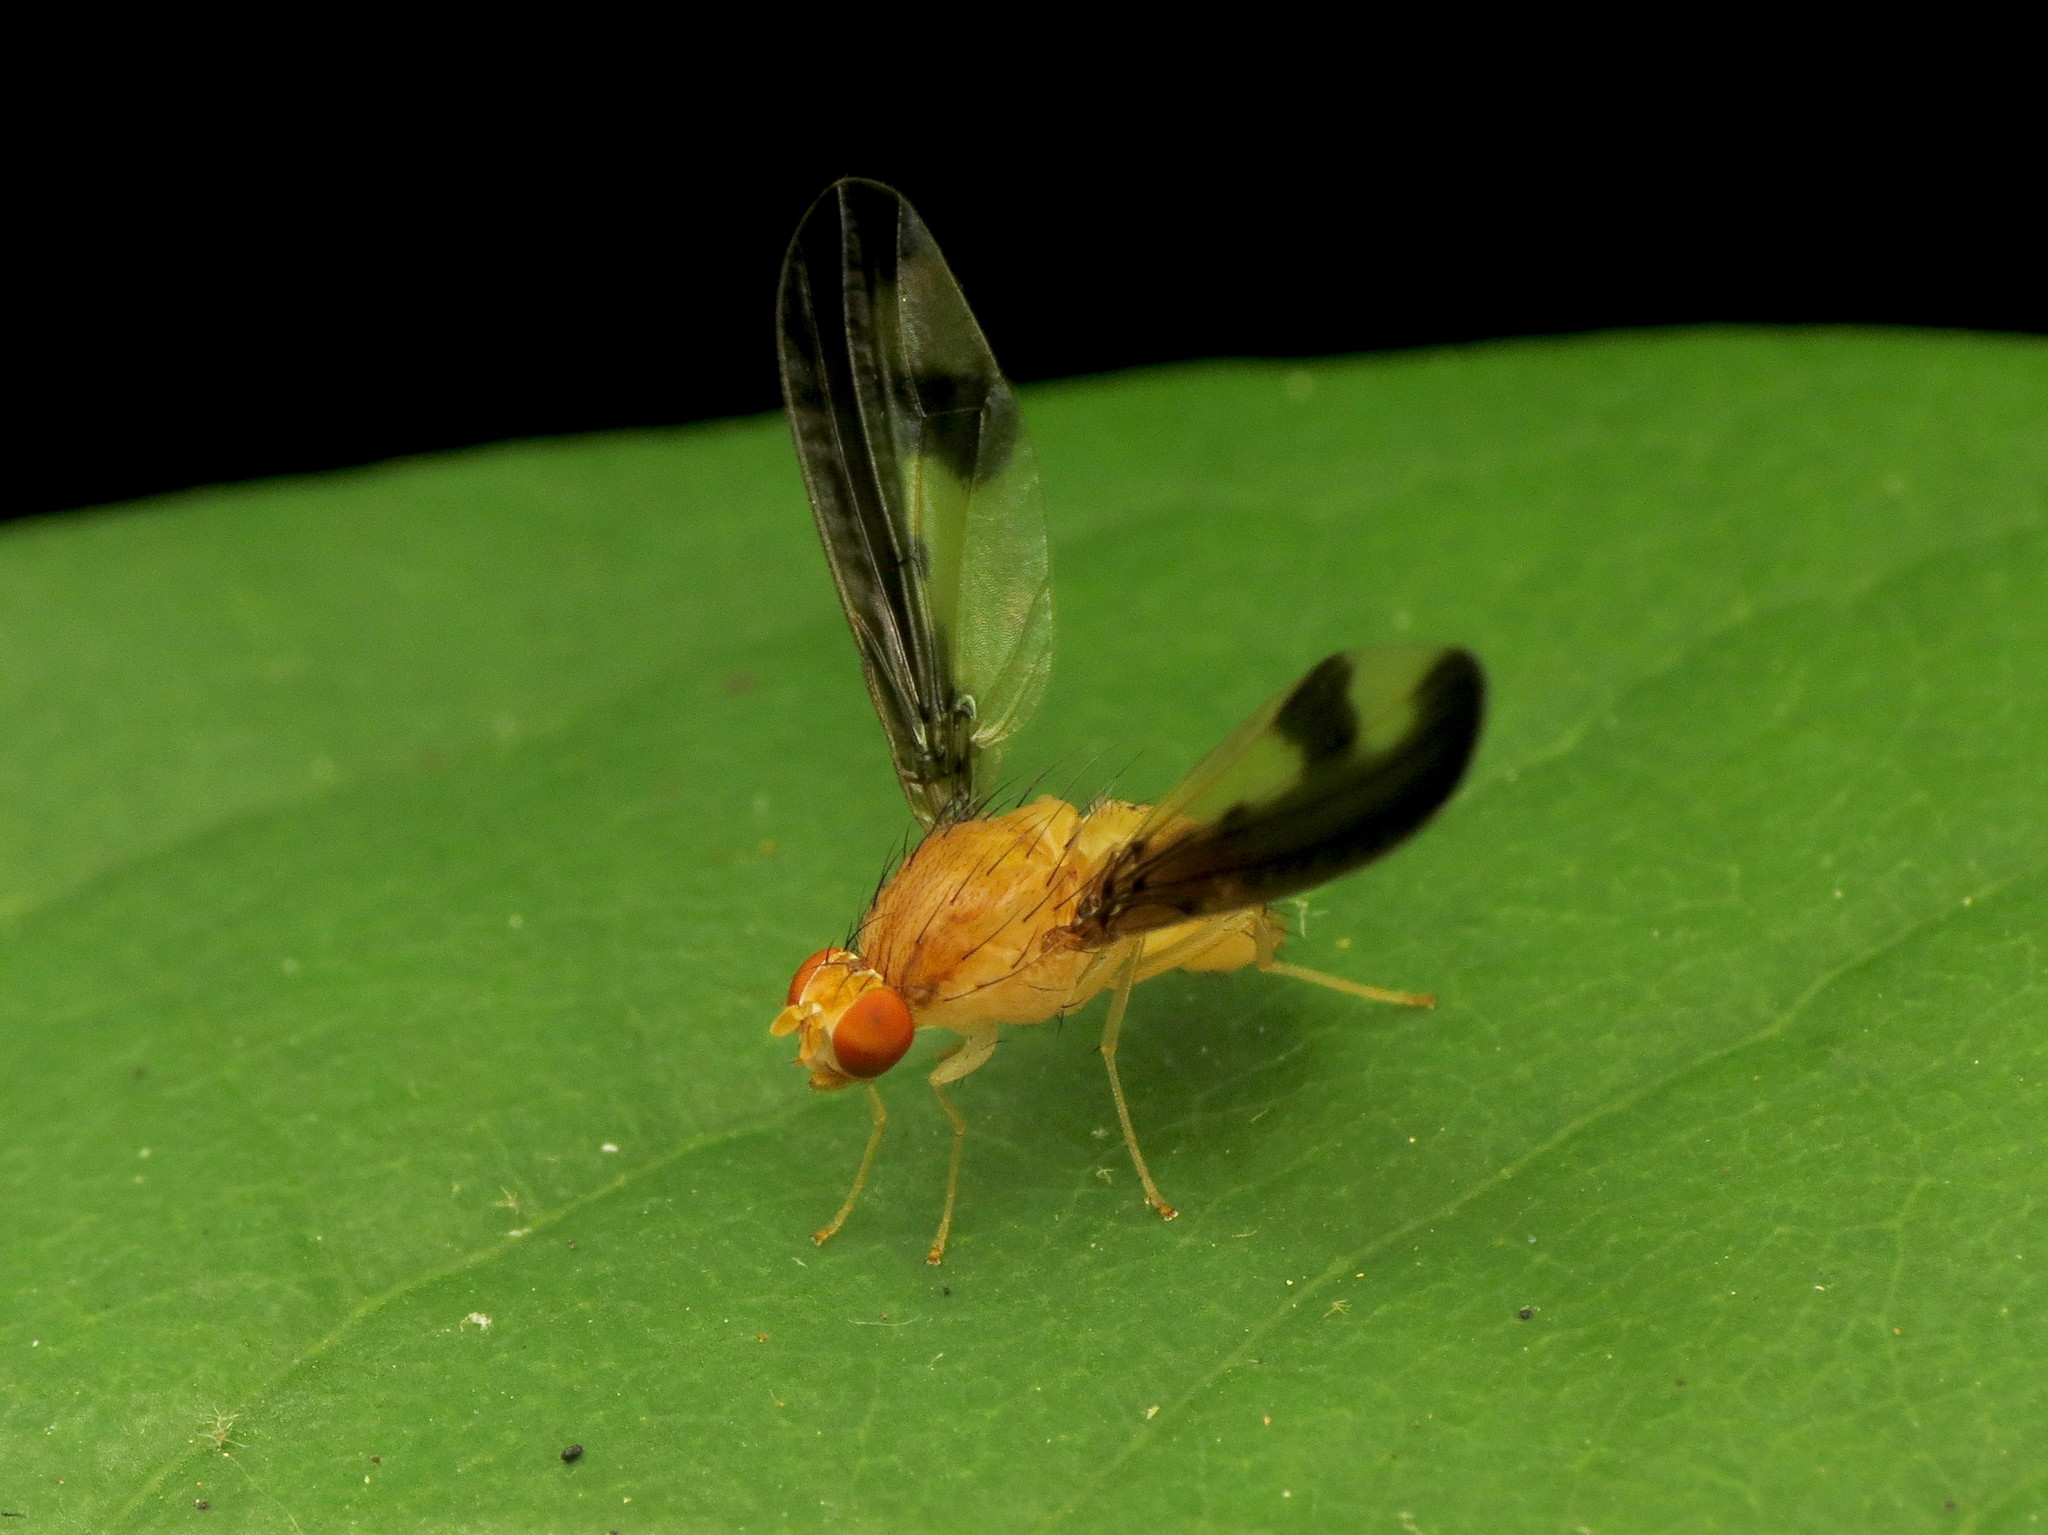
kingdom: Animalia
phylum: Arthropoda
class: Insecta
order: Diptera
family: Pallopteridae
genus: Toxonevra
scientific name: Toxonevra superba
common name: Antlered flutter fly
